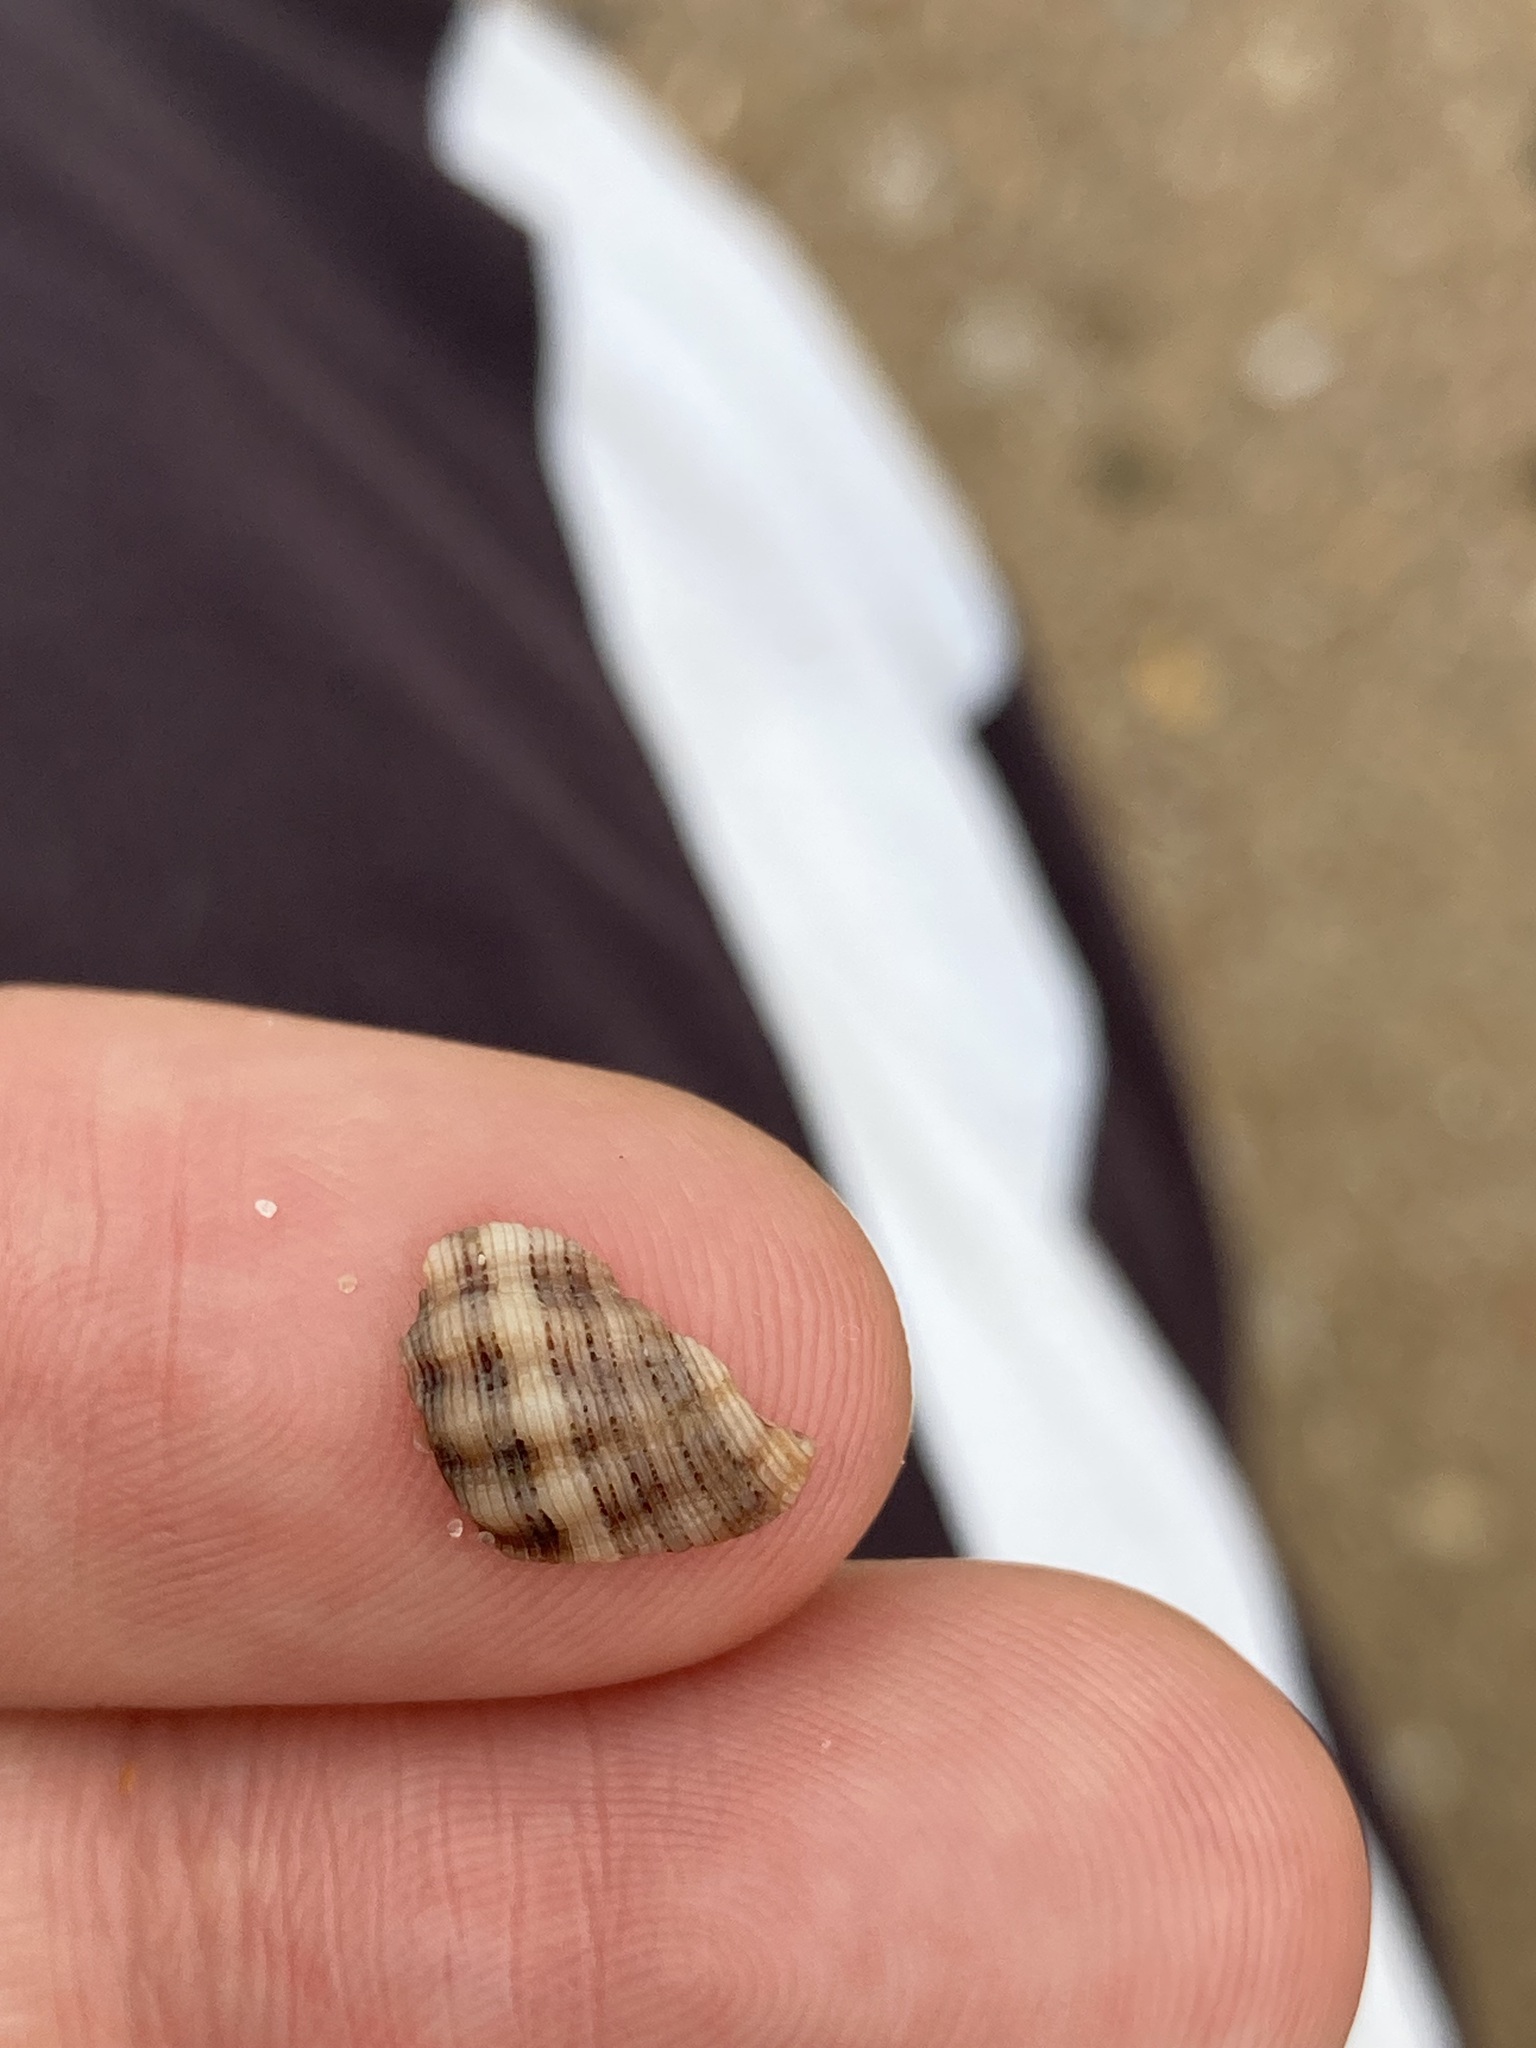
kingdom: Animalia
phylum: Mollusca
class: Gastropoda
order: Neogastropoda
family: Muricidae
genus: Agnewia
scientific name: Agnewia tritoniformis
